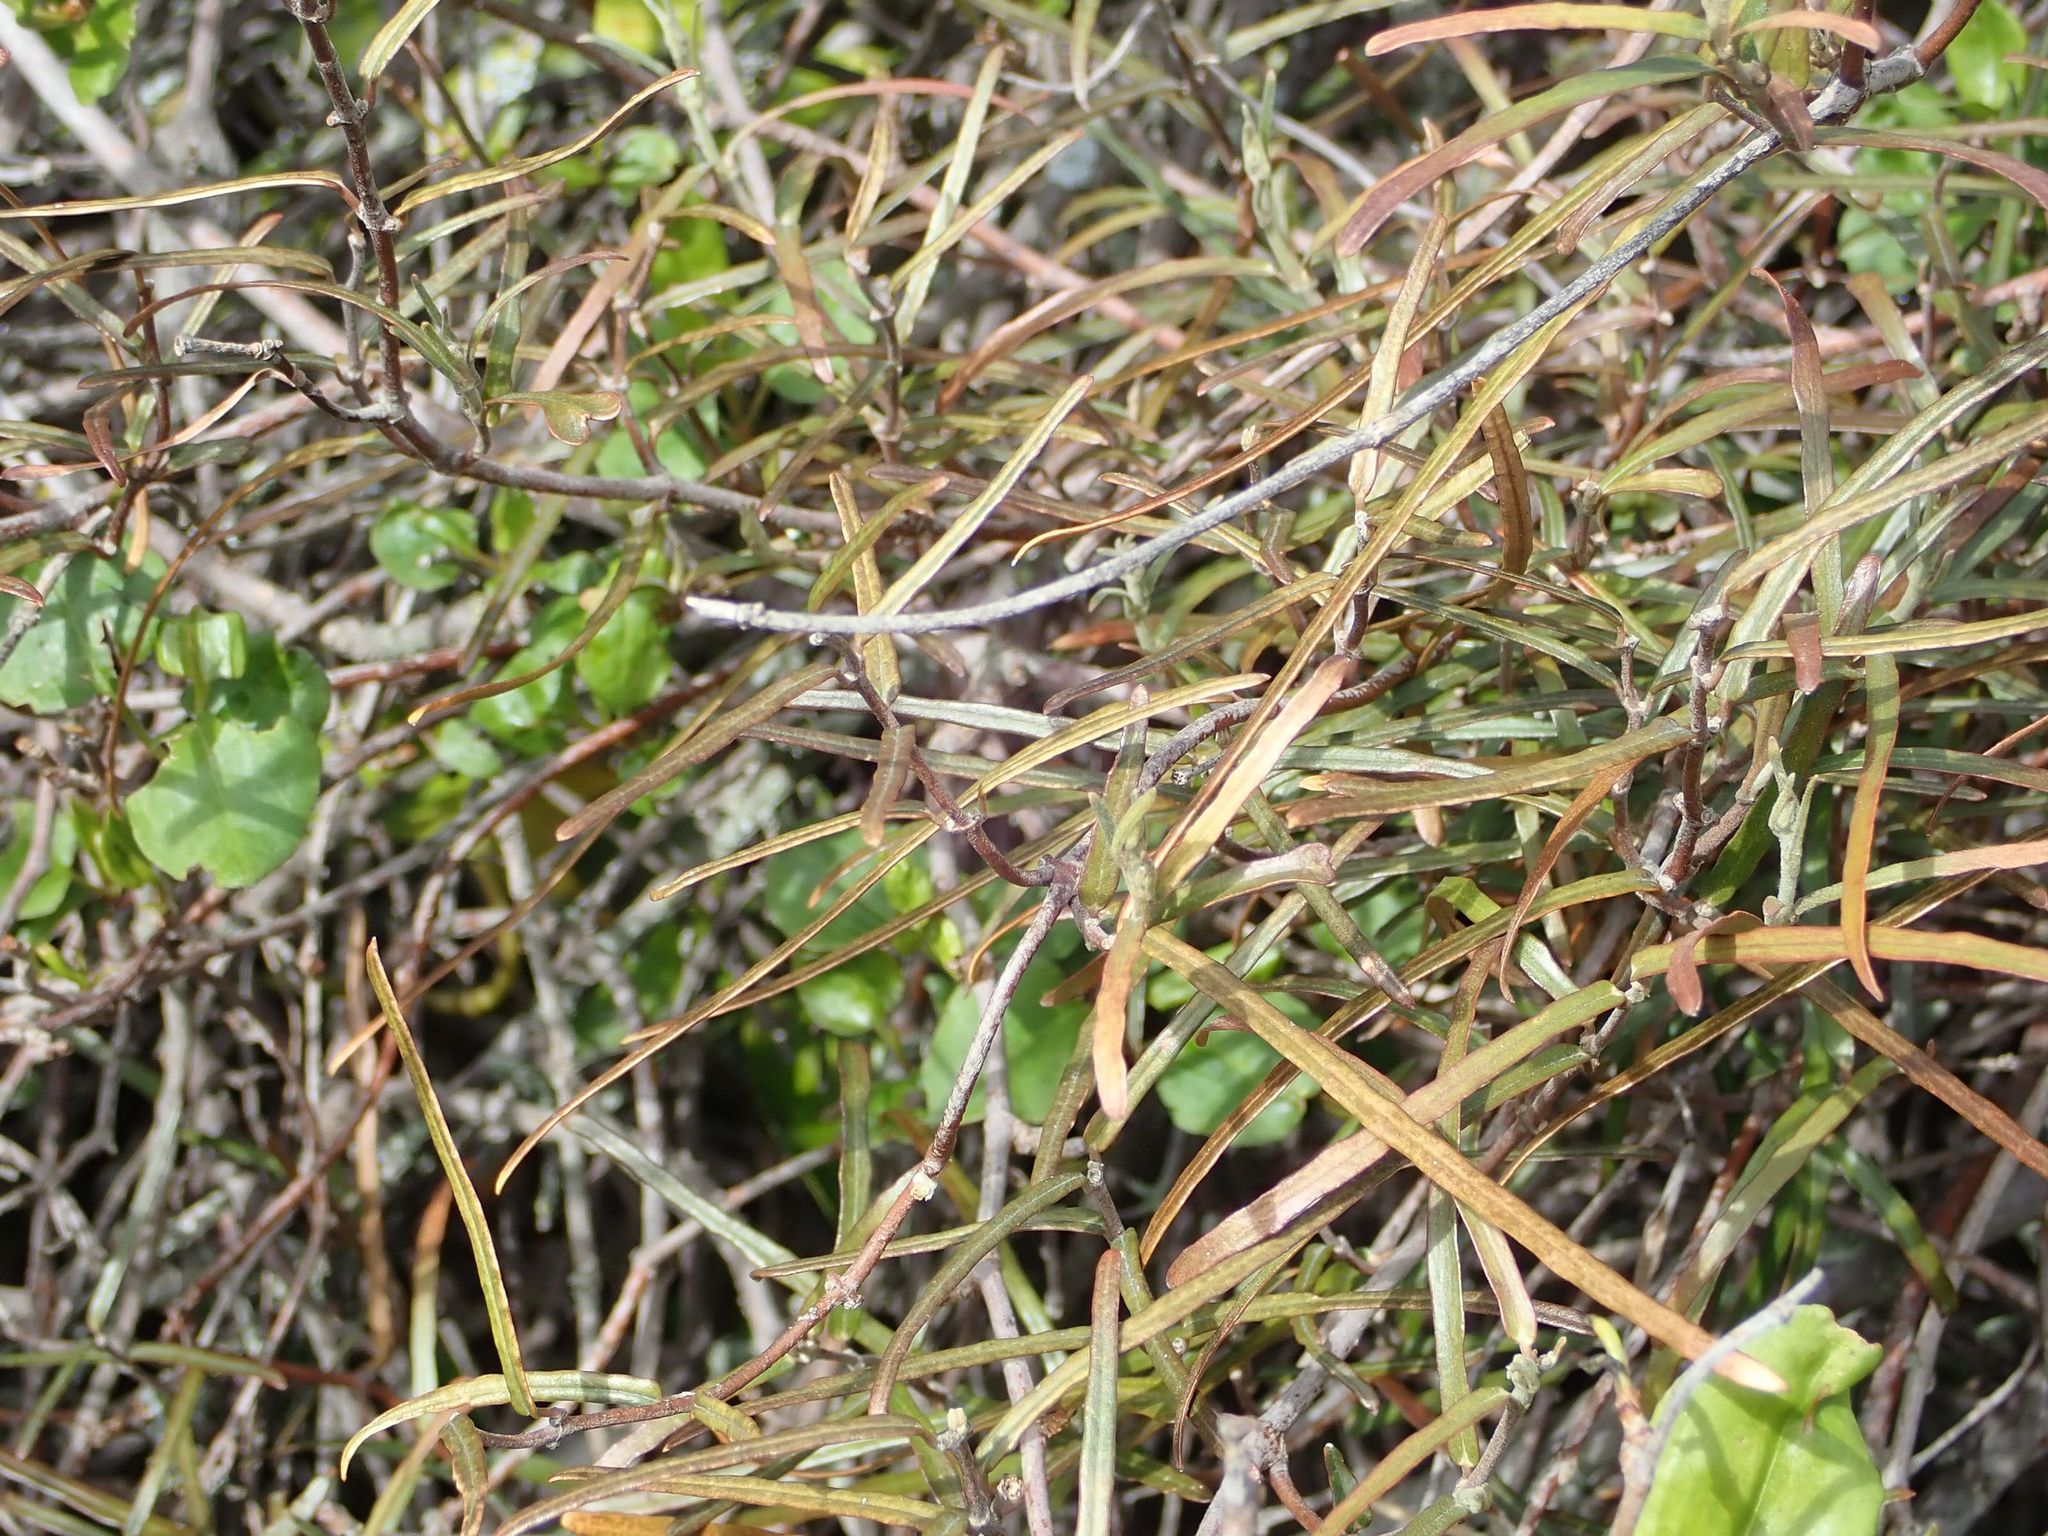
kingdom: Plantae
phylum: Tracheophyta
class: Magnoliopsida
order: Gentianales
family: Apocynaceae
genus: Parsonsia
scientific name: Parsonsia heterophylla
